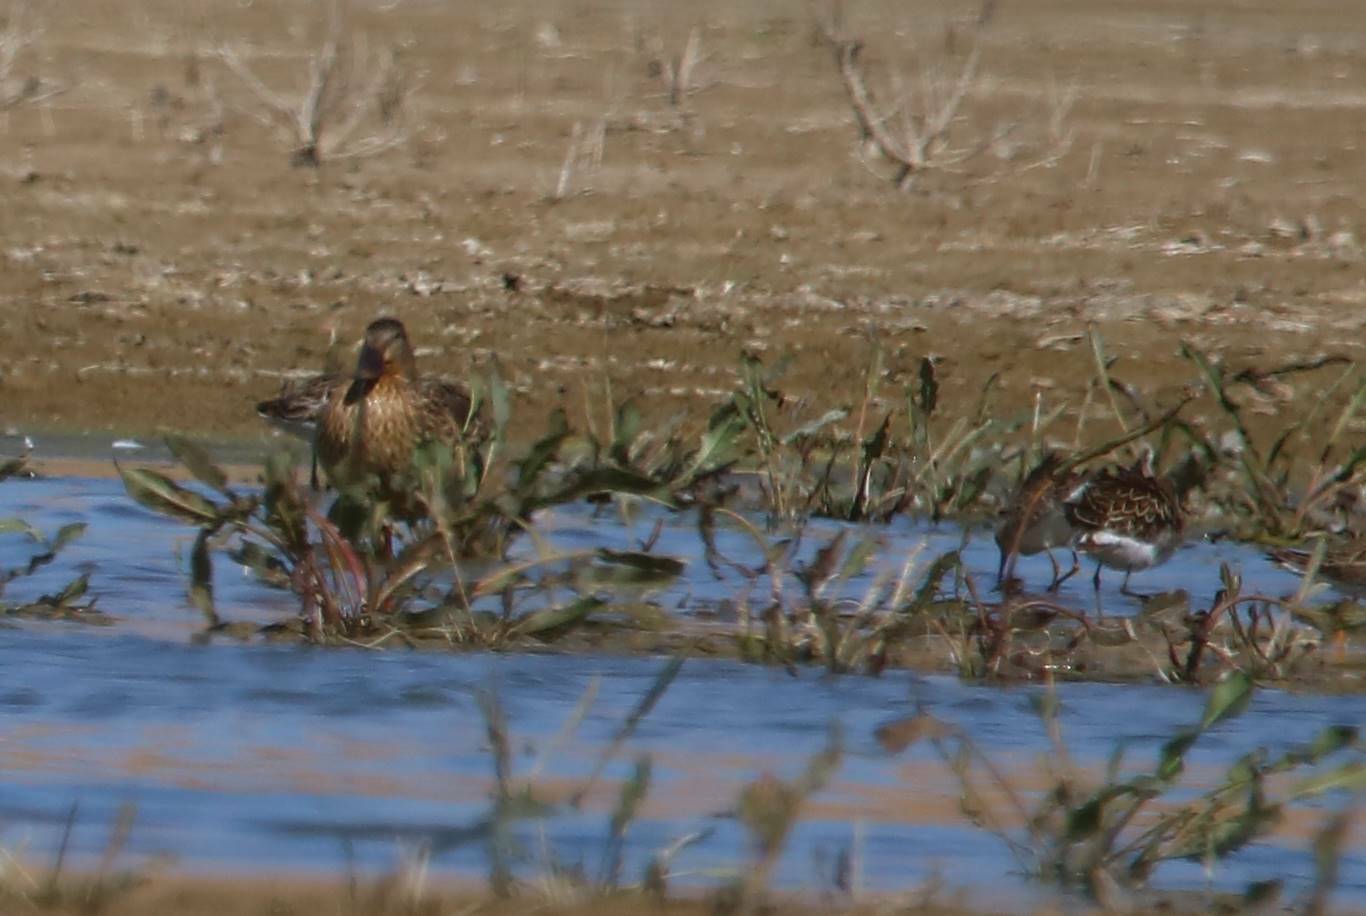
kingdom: Animalia
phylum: Chordata
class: Aves
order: Charadriiformes
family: Scolopacidae
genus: Calidris
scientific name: Calidris pugnax
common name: Ruff
